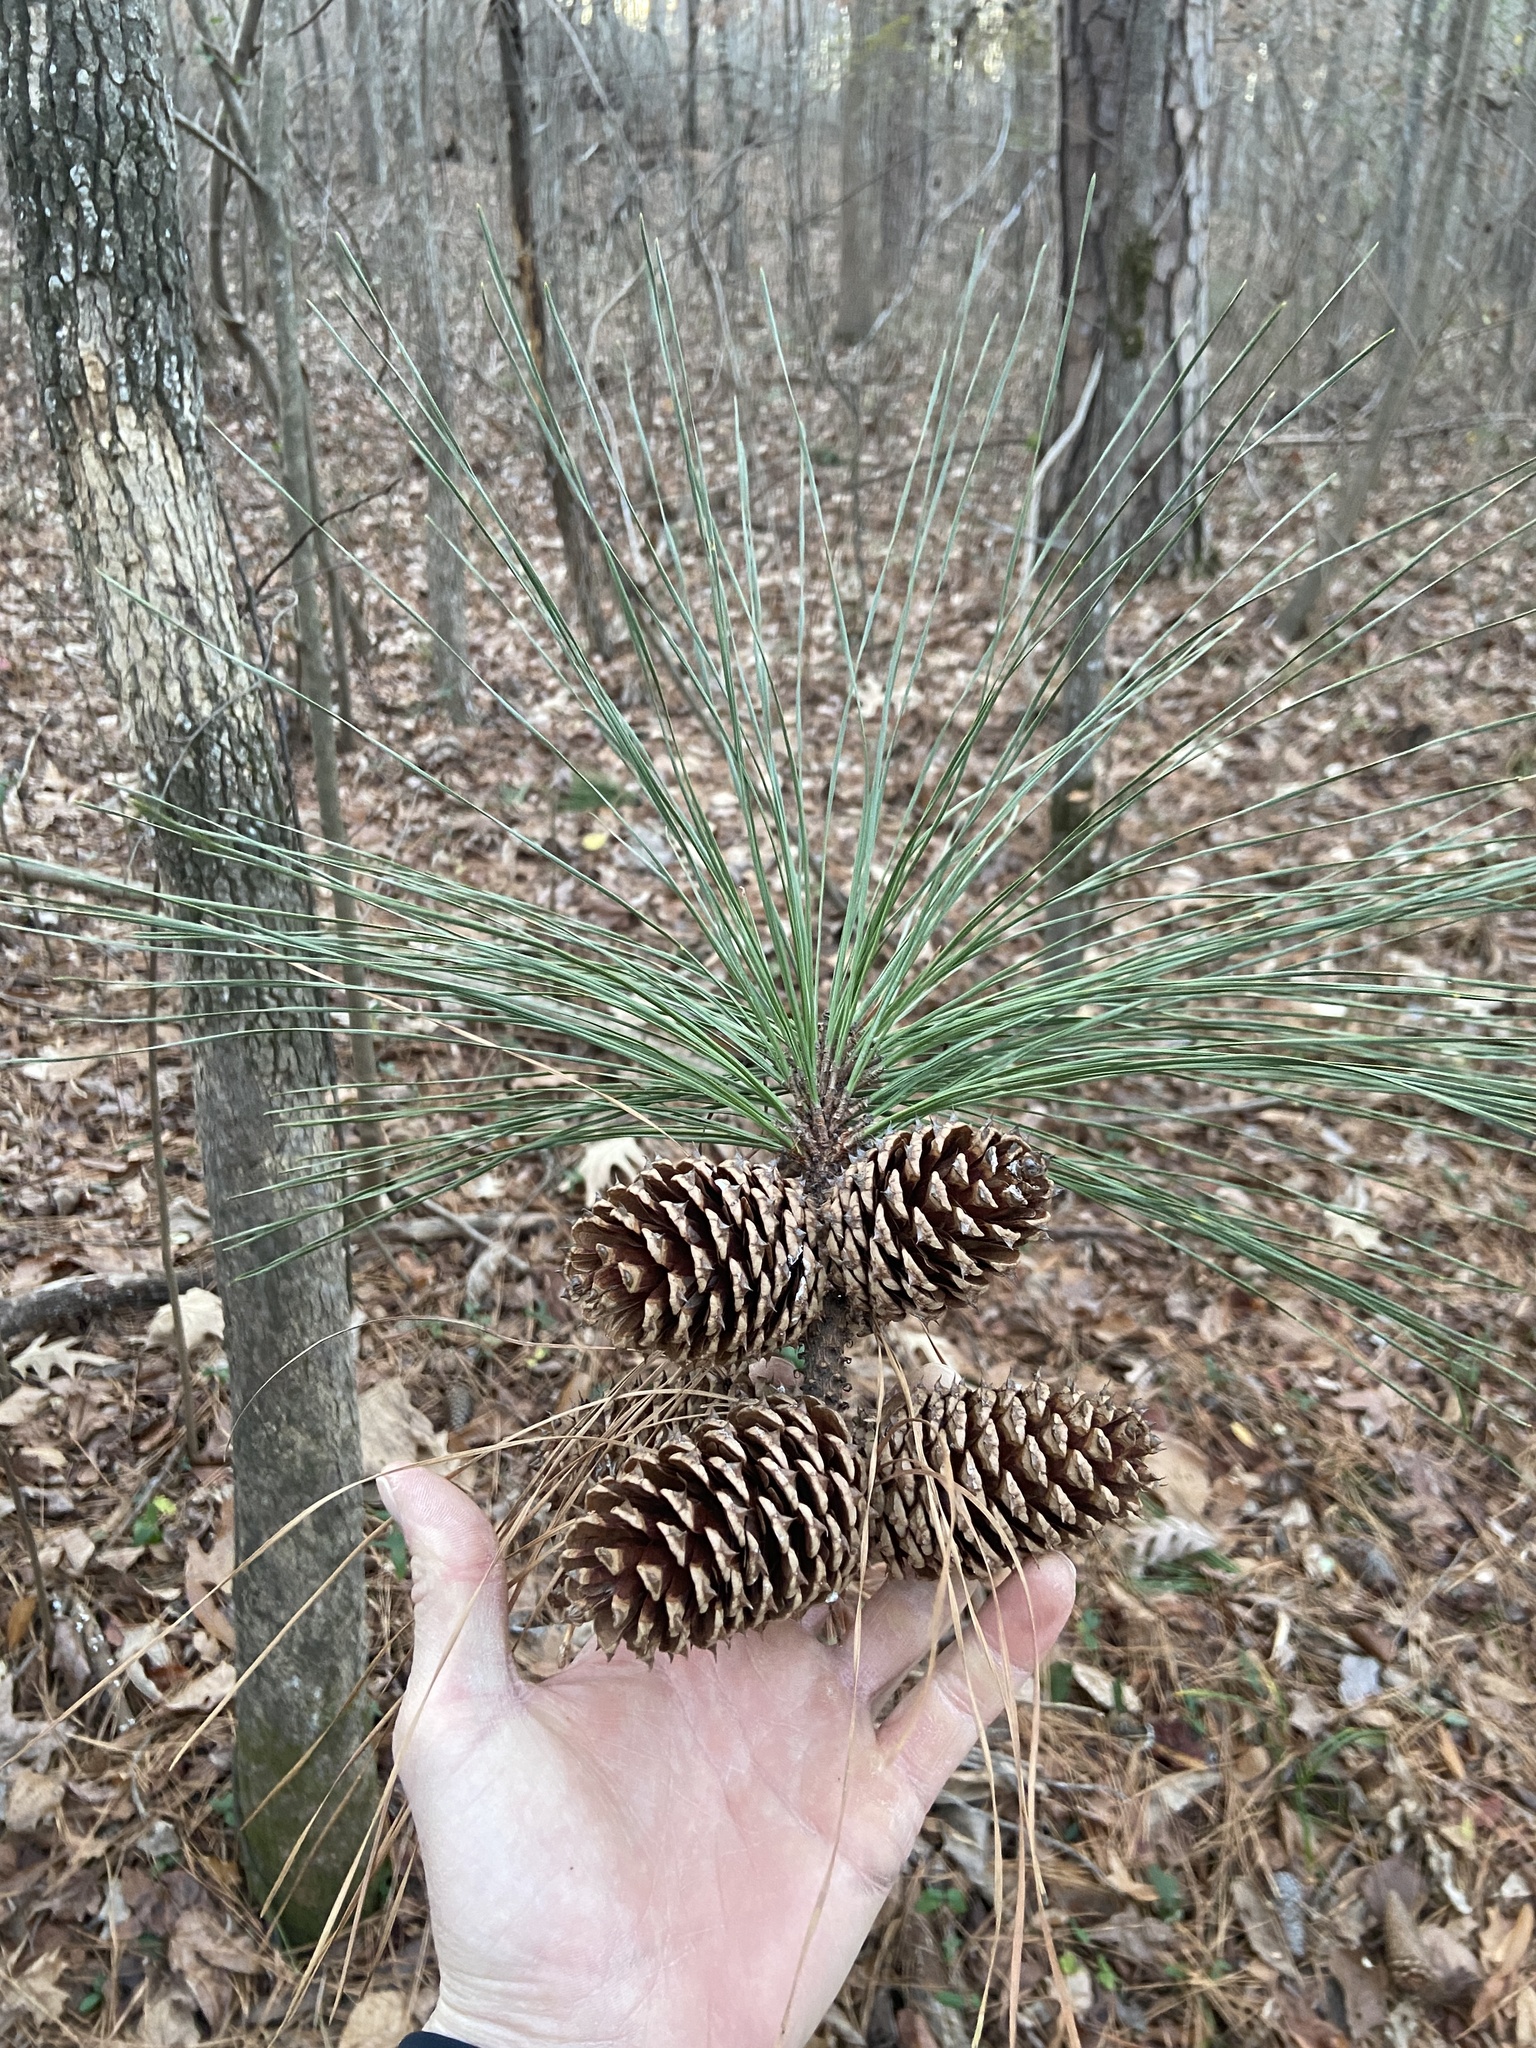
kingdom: Plantae
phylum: Tracheophyta
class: Pinopsida
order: Pinales
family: Pinaceae
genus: Pinus
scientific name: Pinus taeda
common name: Loblolly pine
